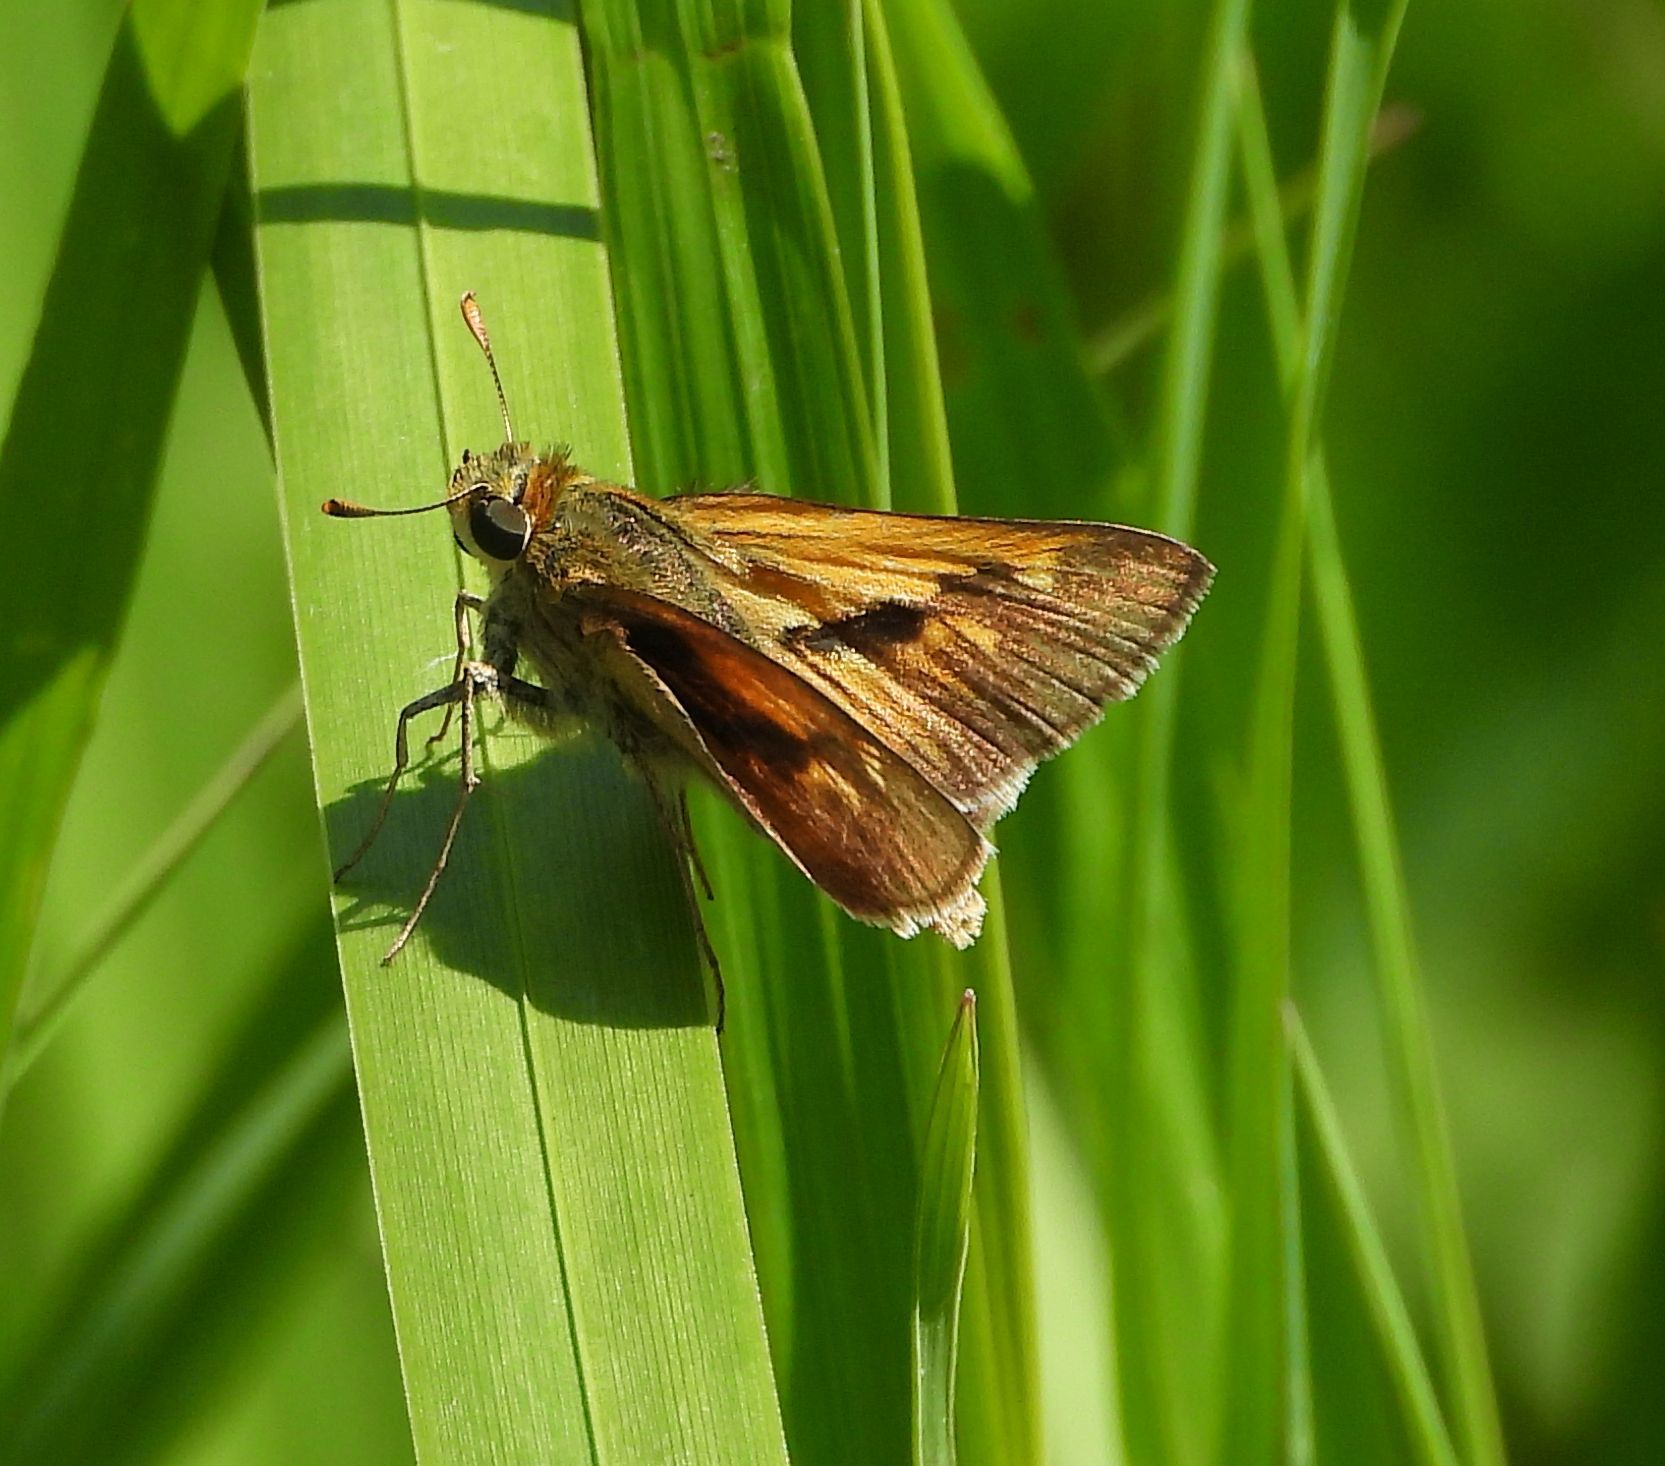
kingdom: Animalia
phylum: Arthropoda
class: Insecta
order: Lepidoptera
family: Hesperiidae
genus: Polites
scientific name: Polites origenes
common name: Crossline skipper
